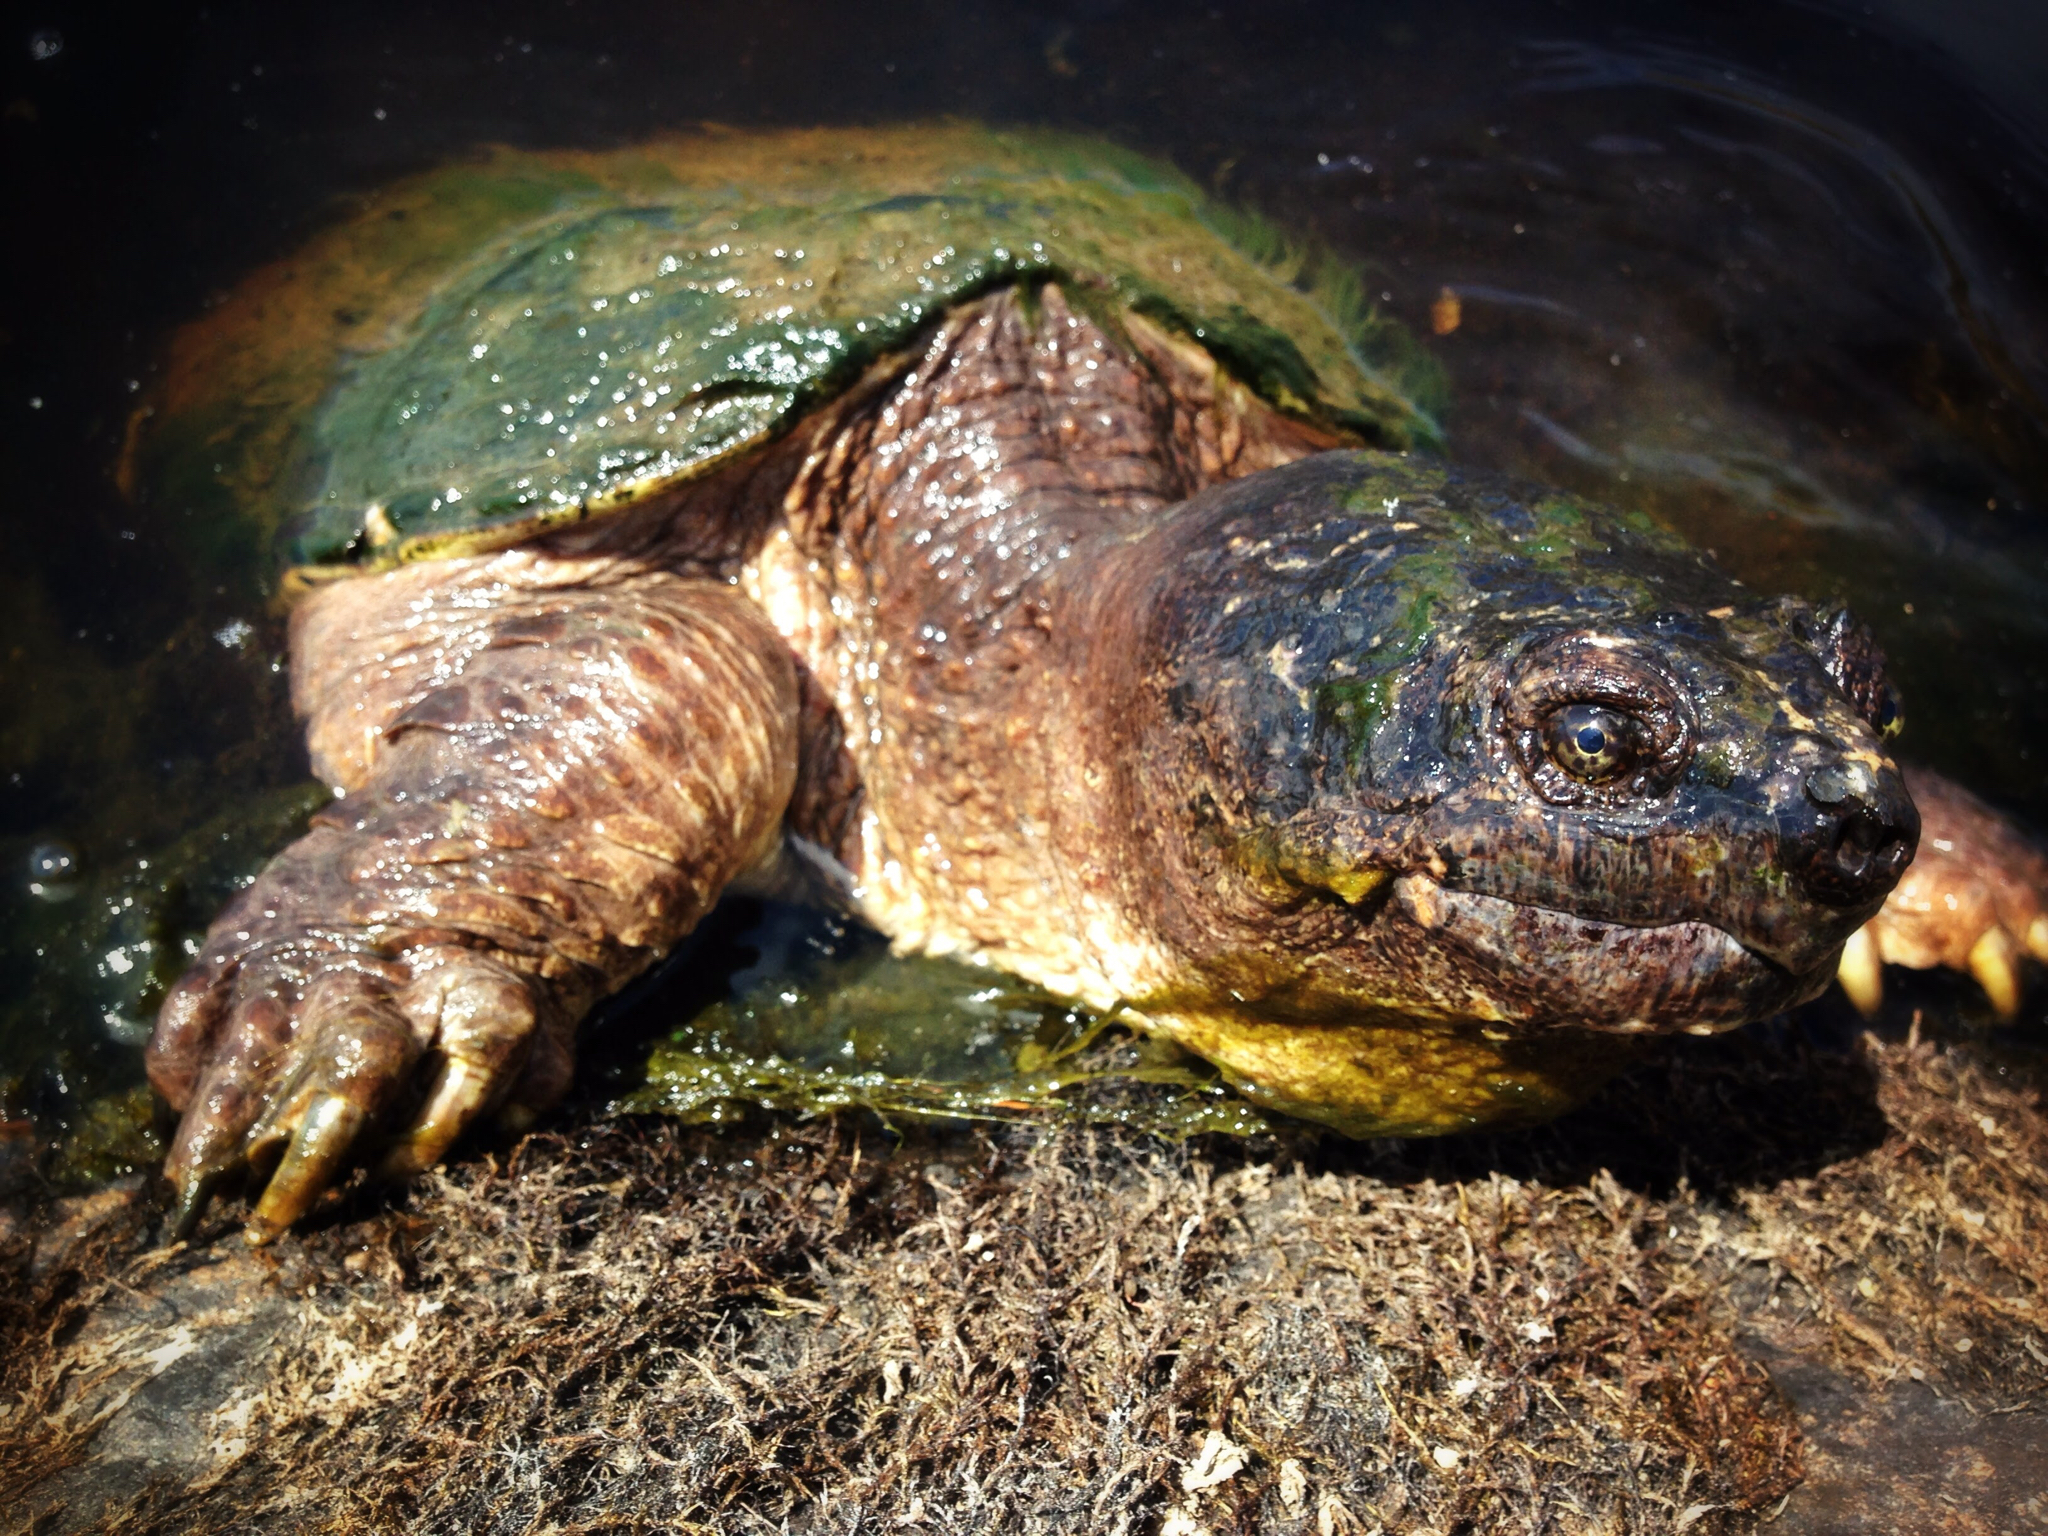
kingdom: Animalia
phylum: Chordata
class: Testudines
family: Chelydridae
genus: Chelydra
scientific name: Chelydra serpentina
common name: Common snapping turtle
